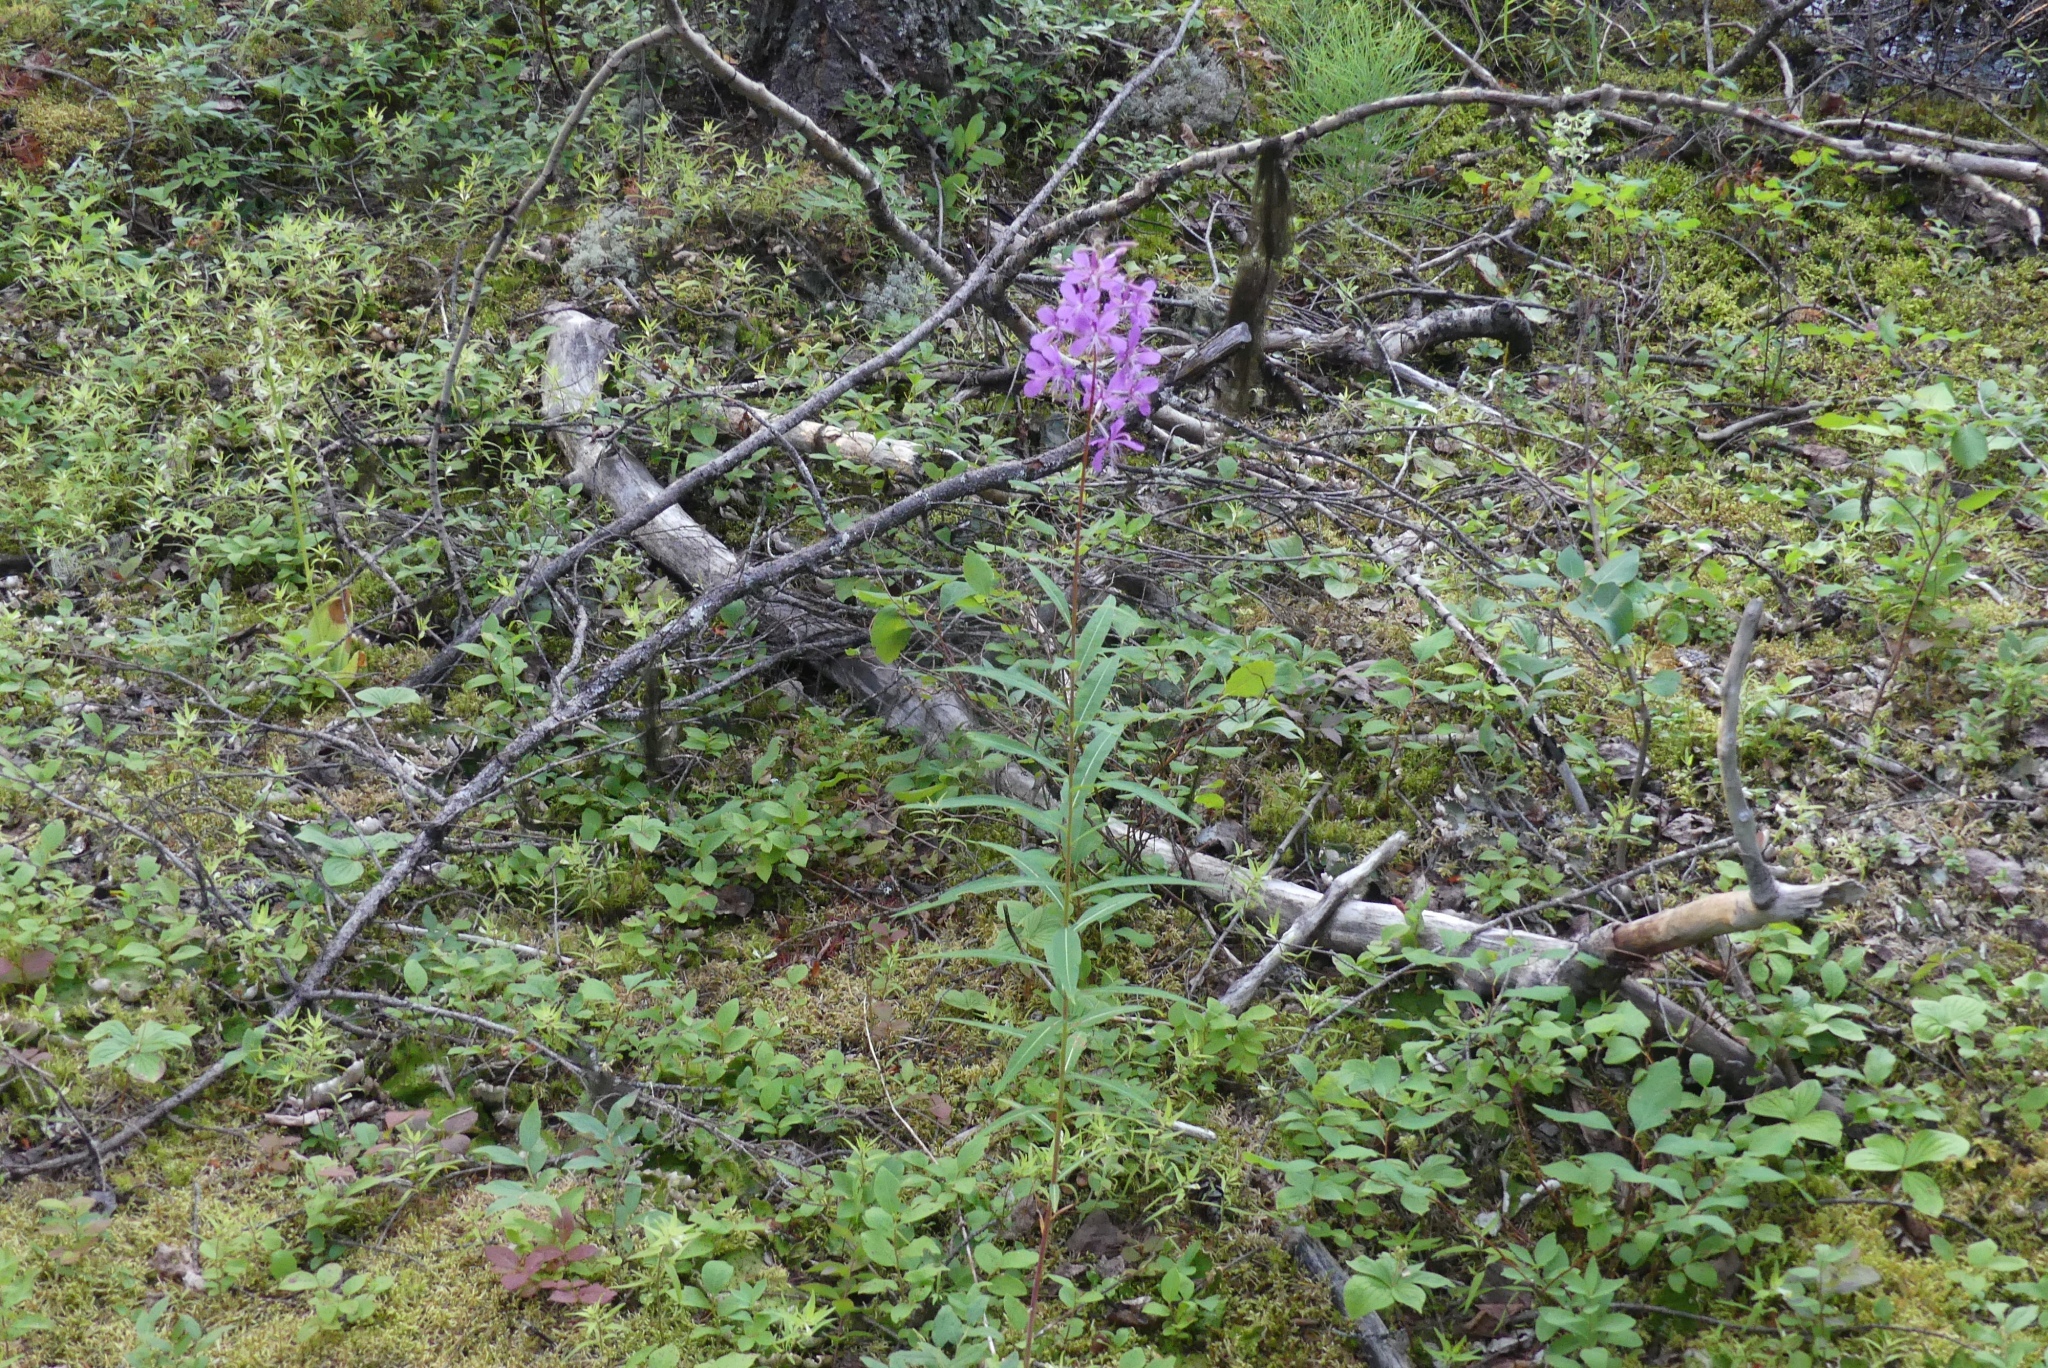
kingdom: Plantae
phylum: Tracheophyta
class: Magnoliopsida
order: Myrtales
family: Onagraceae
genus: Chamaenerion
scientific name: Chamaenerion angustifolium
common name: Fireweed
